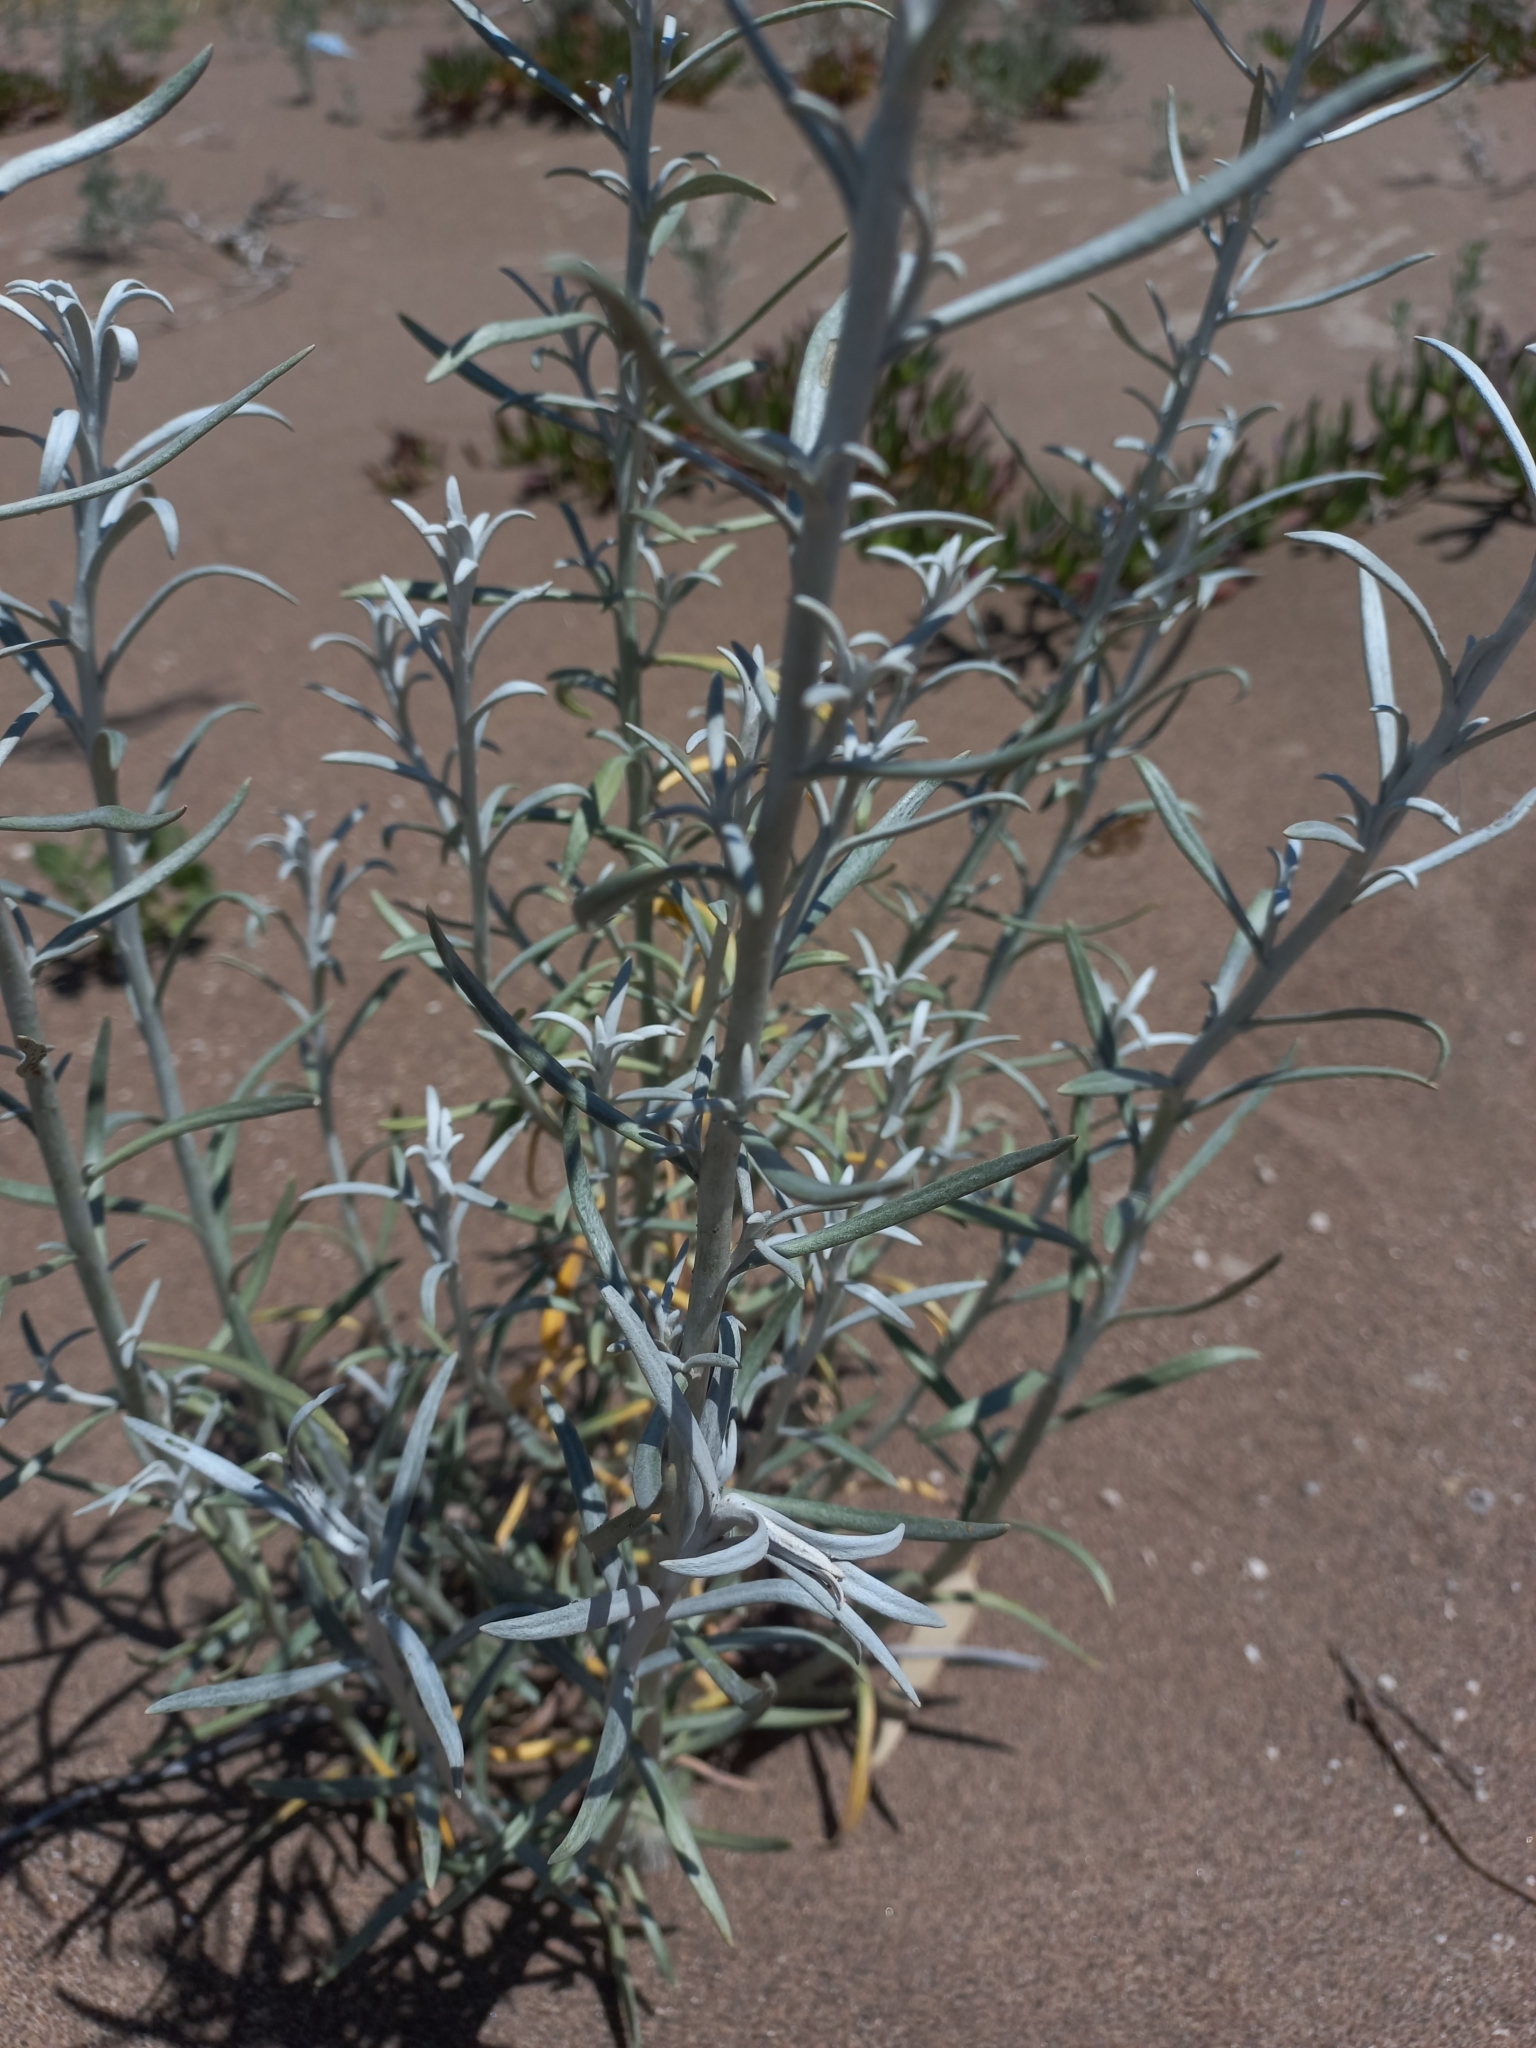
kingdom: Plantae
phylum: Tracheophyta
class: Magnoliopsida
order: Asterales
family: Asteraceae
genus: Senecio
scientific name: Senecio bergii
